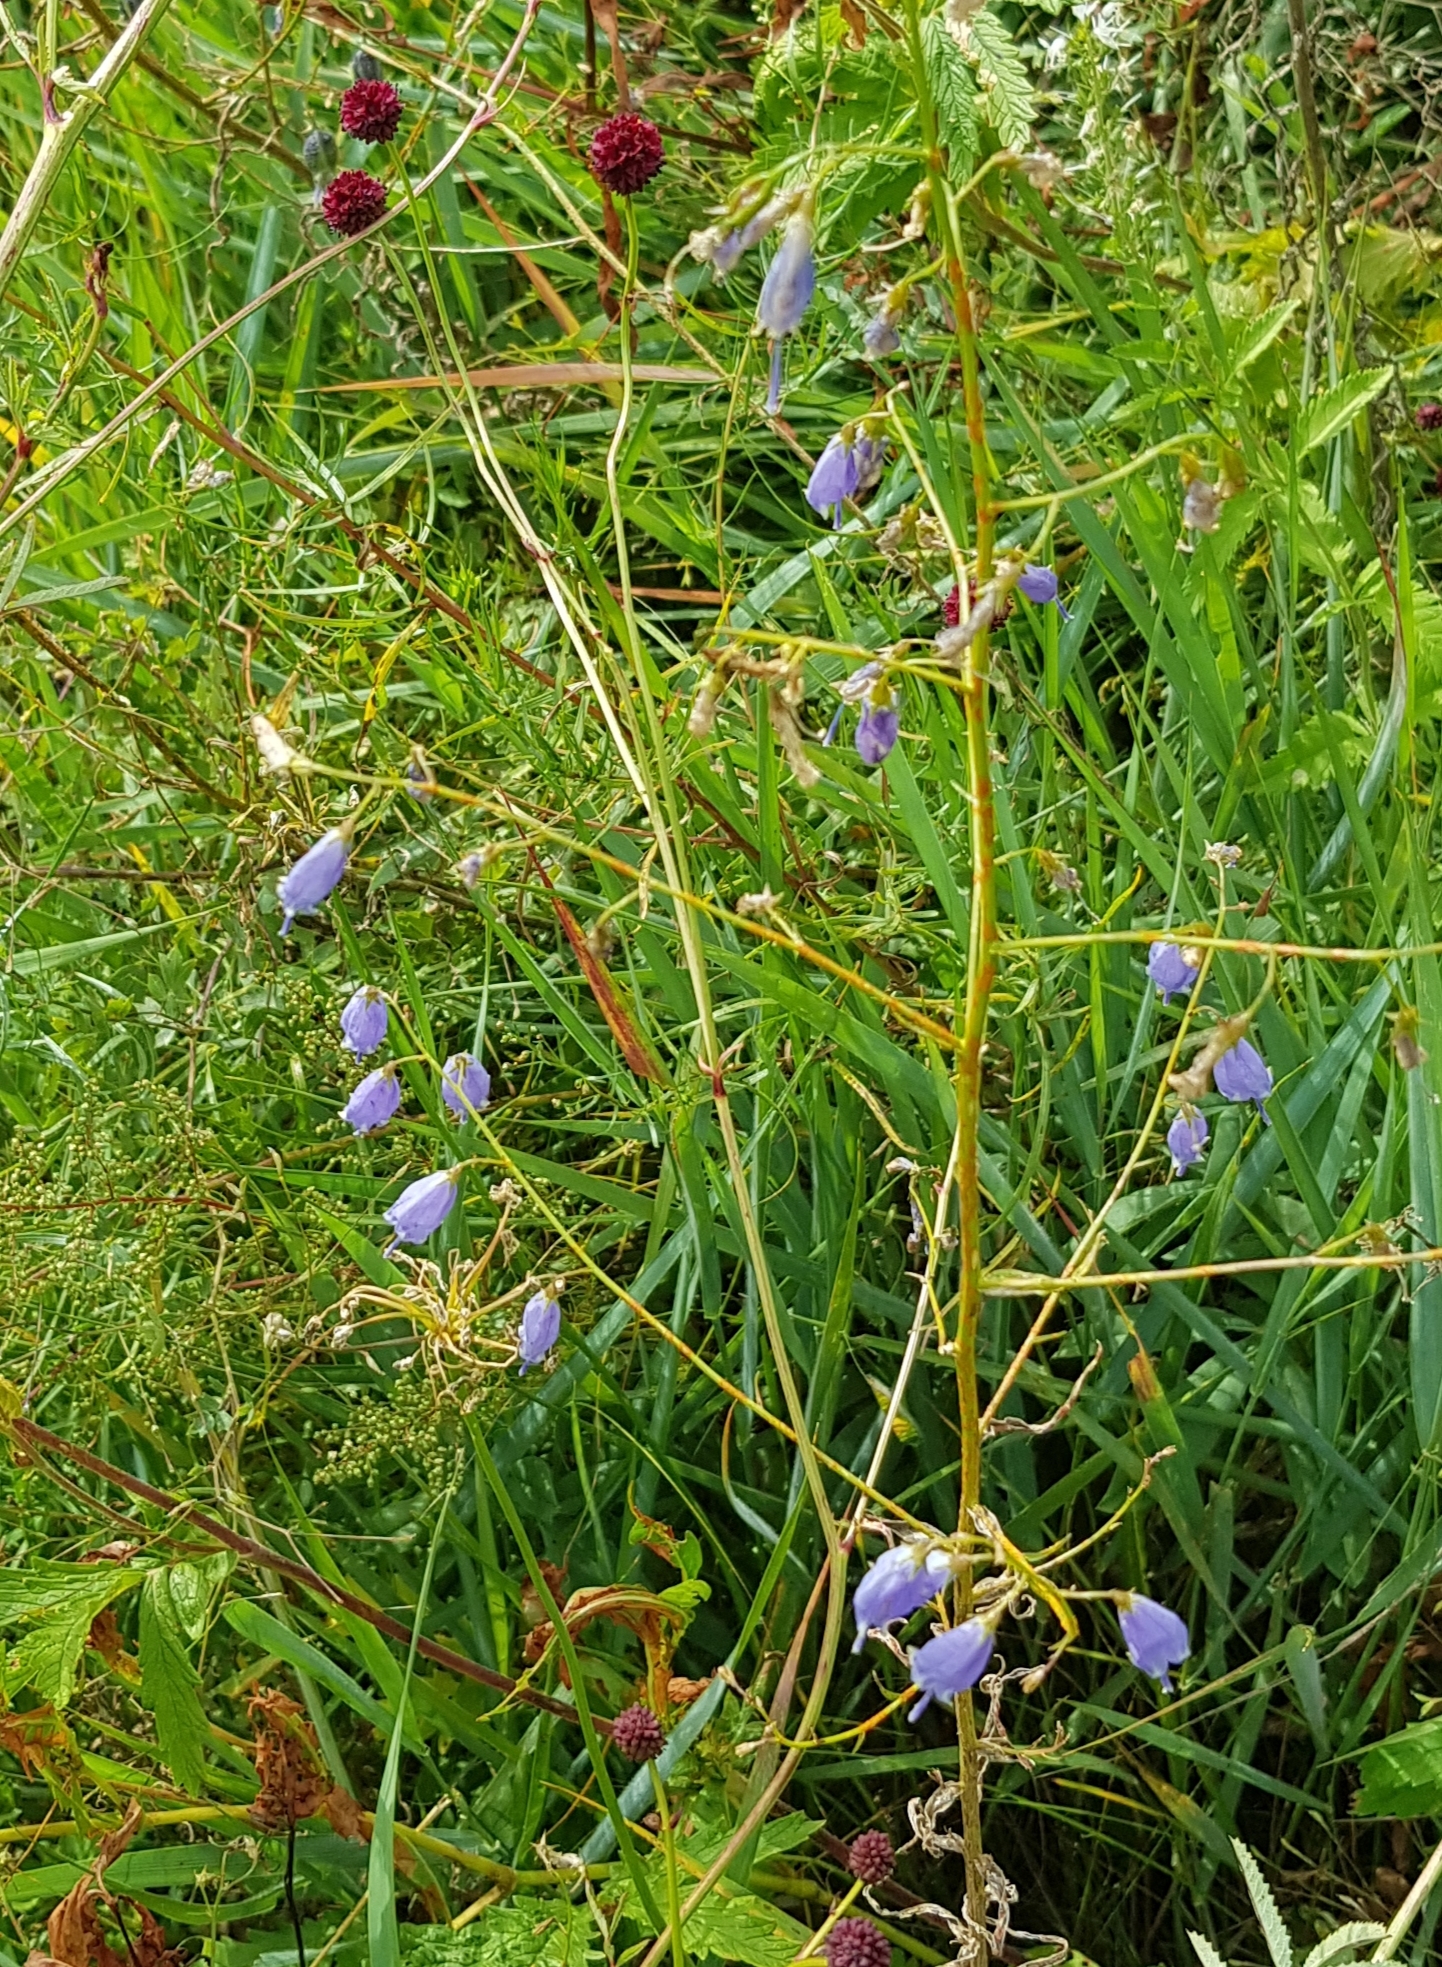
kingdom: Plantae
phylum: Tracheophyta
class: Magnoliopsida
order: Asterales
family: Campanulaceae
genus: Adenophora
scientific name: Adenophora stenanthina
